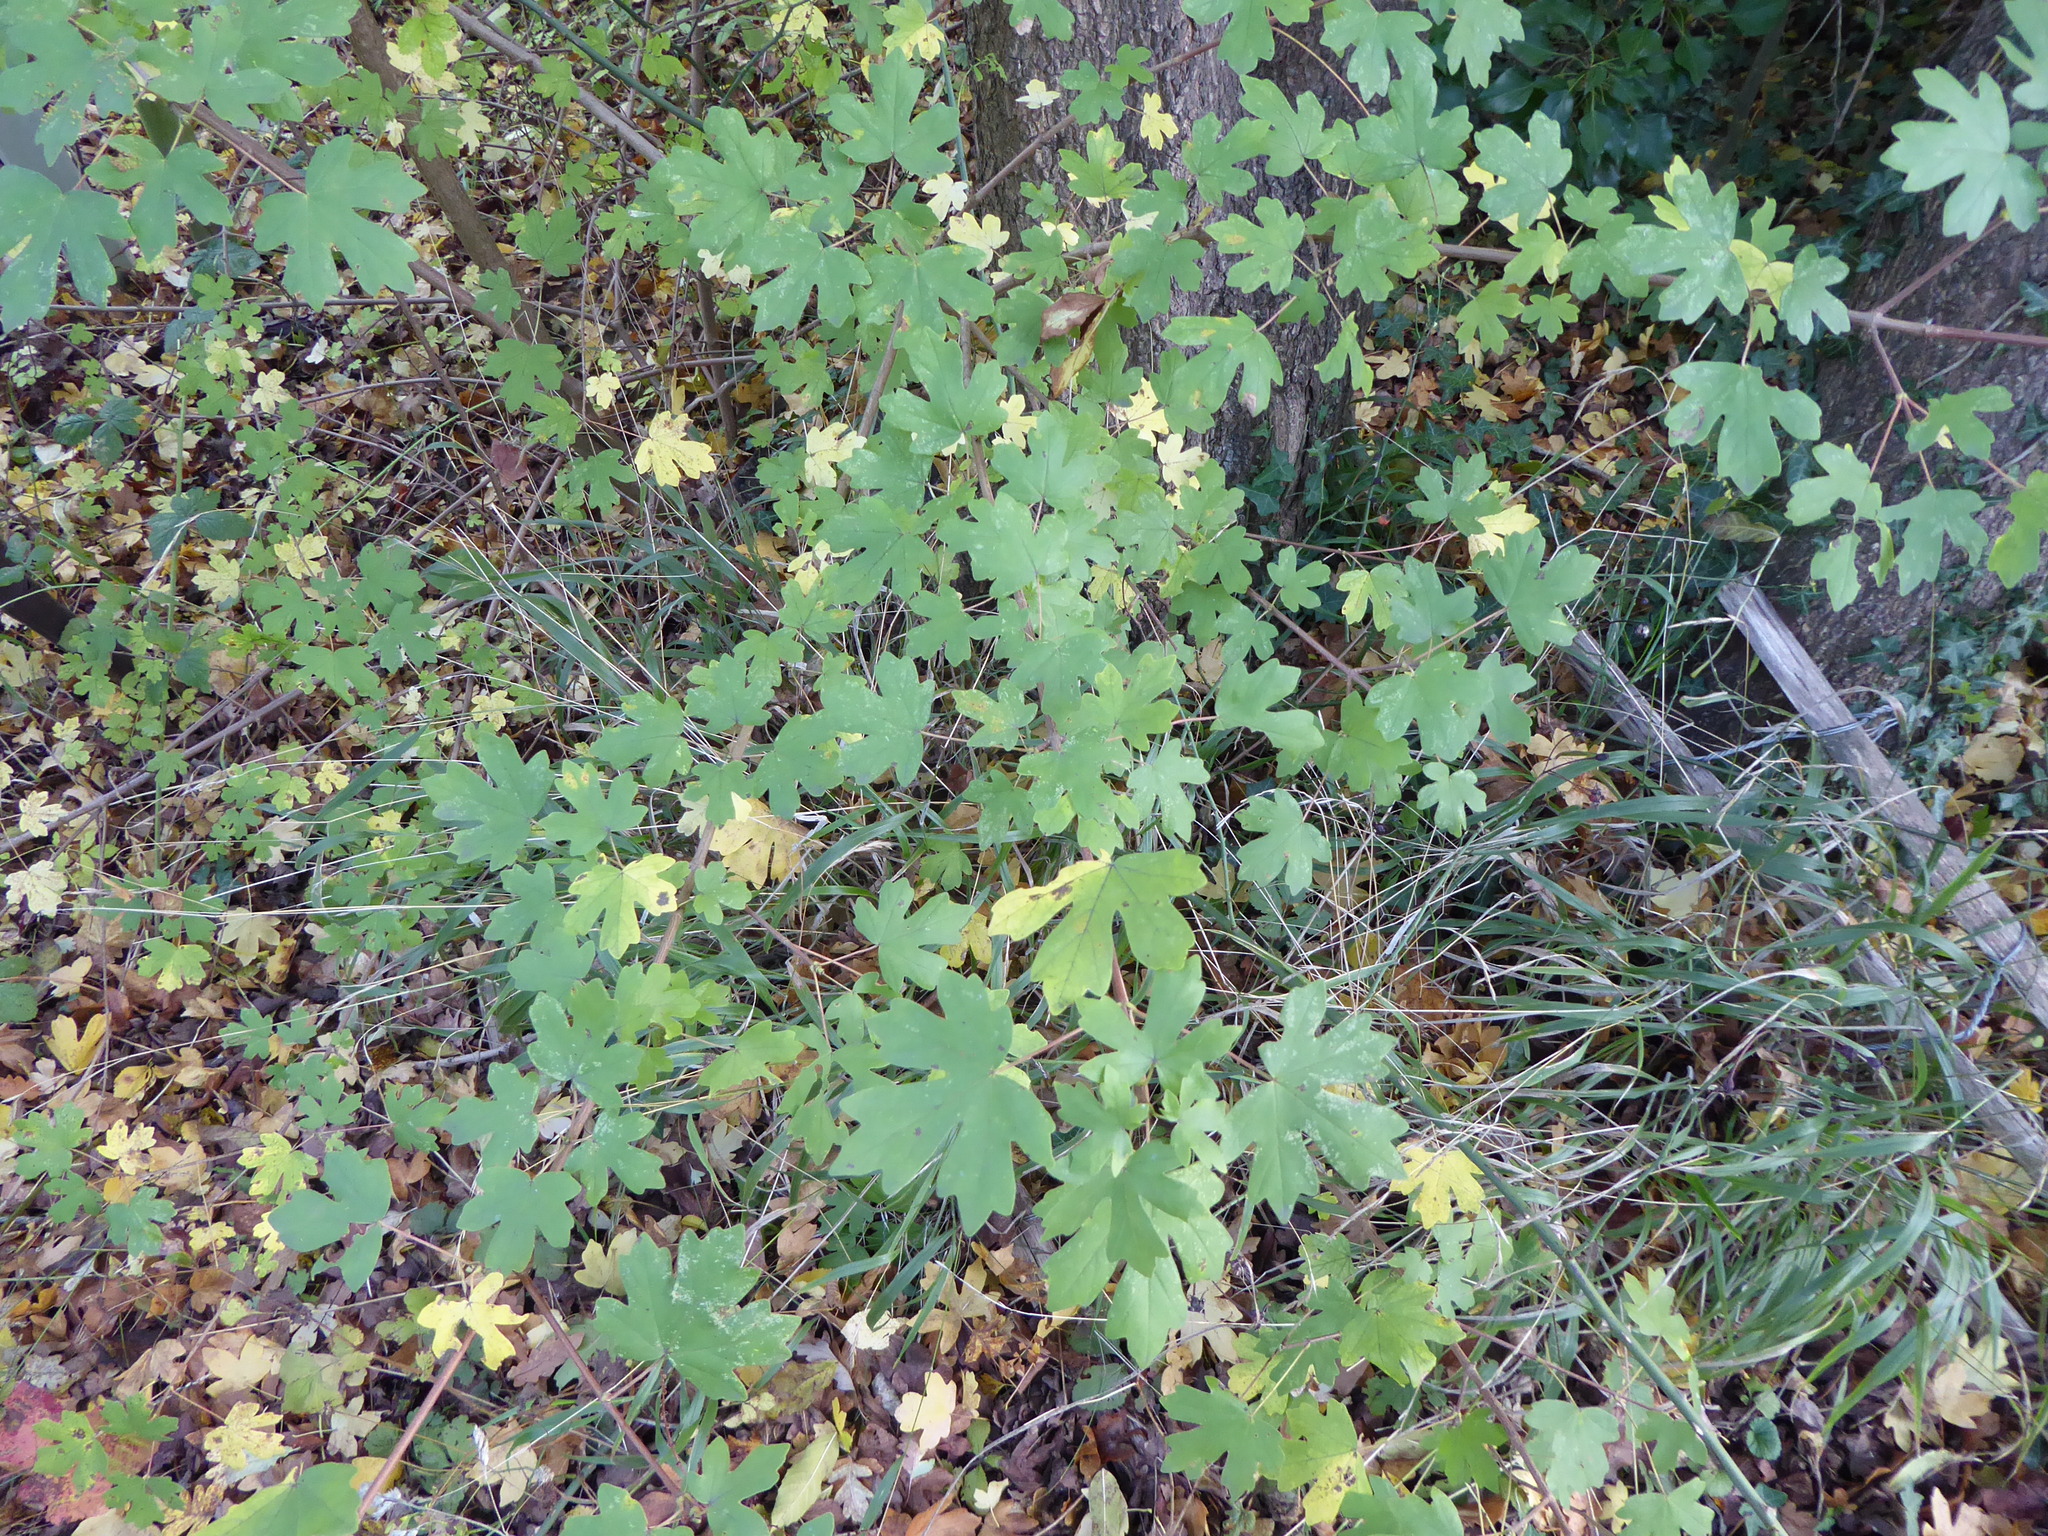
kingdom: Plantae
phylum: Tracheophyta
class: Magnoliopsida
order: Sapindales
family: Sapindaceae
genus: Acer
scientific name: Acer campestre
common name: Field maple
